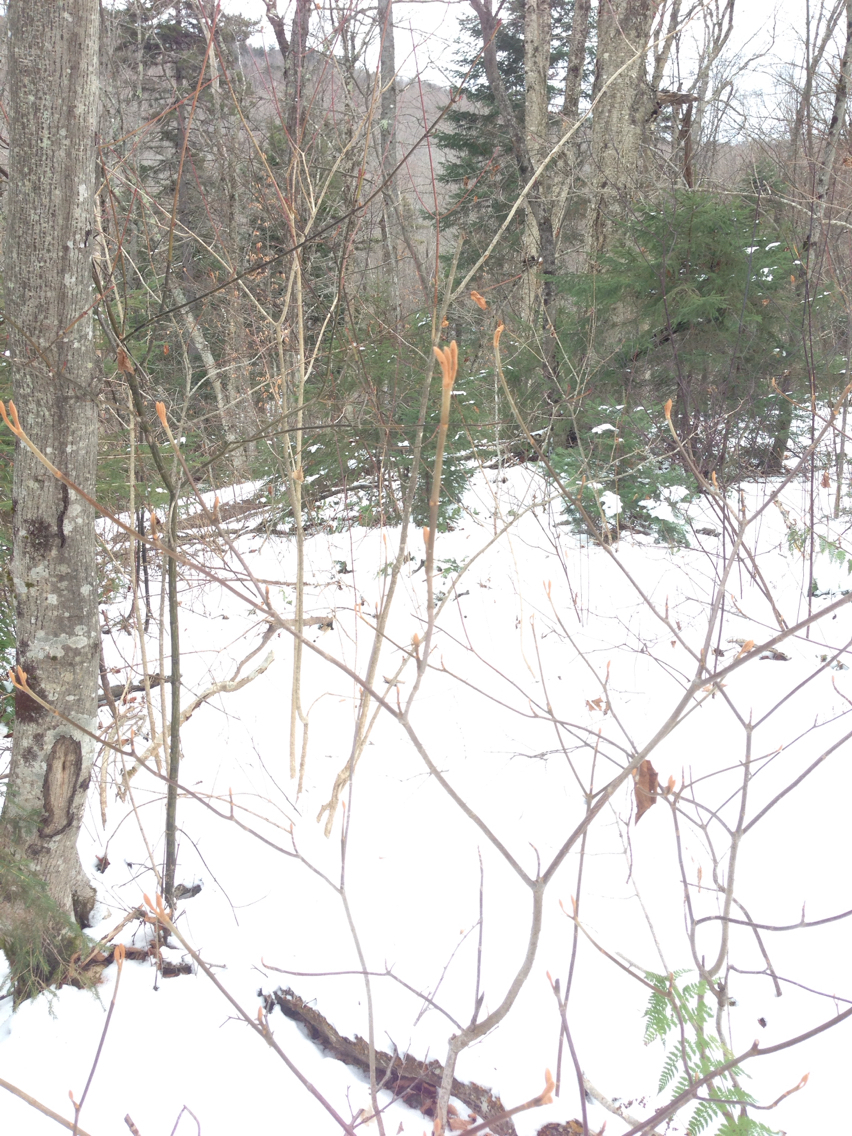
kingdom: Plantae
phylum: Tracheophyta
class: Magnoliopsida
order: Dipsacales
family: Viburnaceae
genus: Viburnum
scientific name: Viburnum lantanoides
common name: Hobblebush
